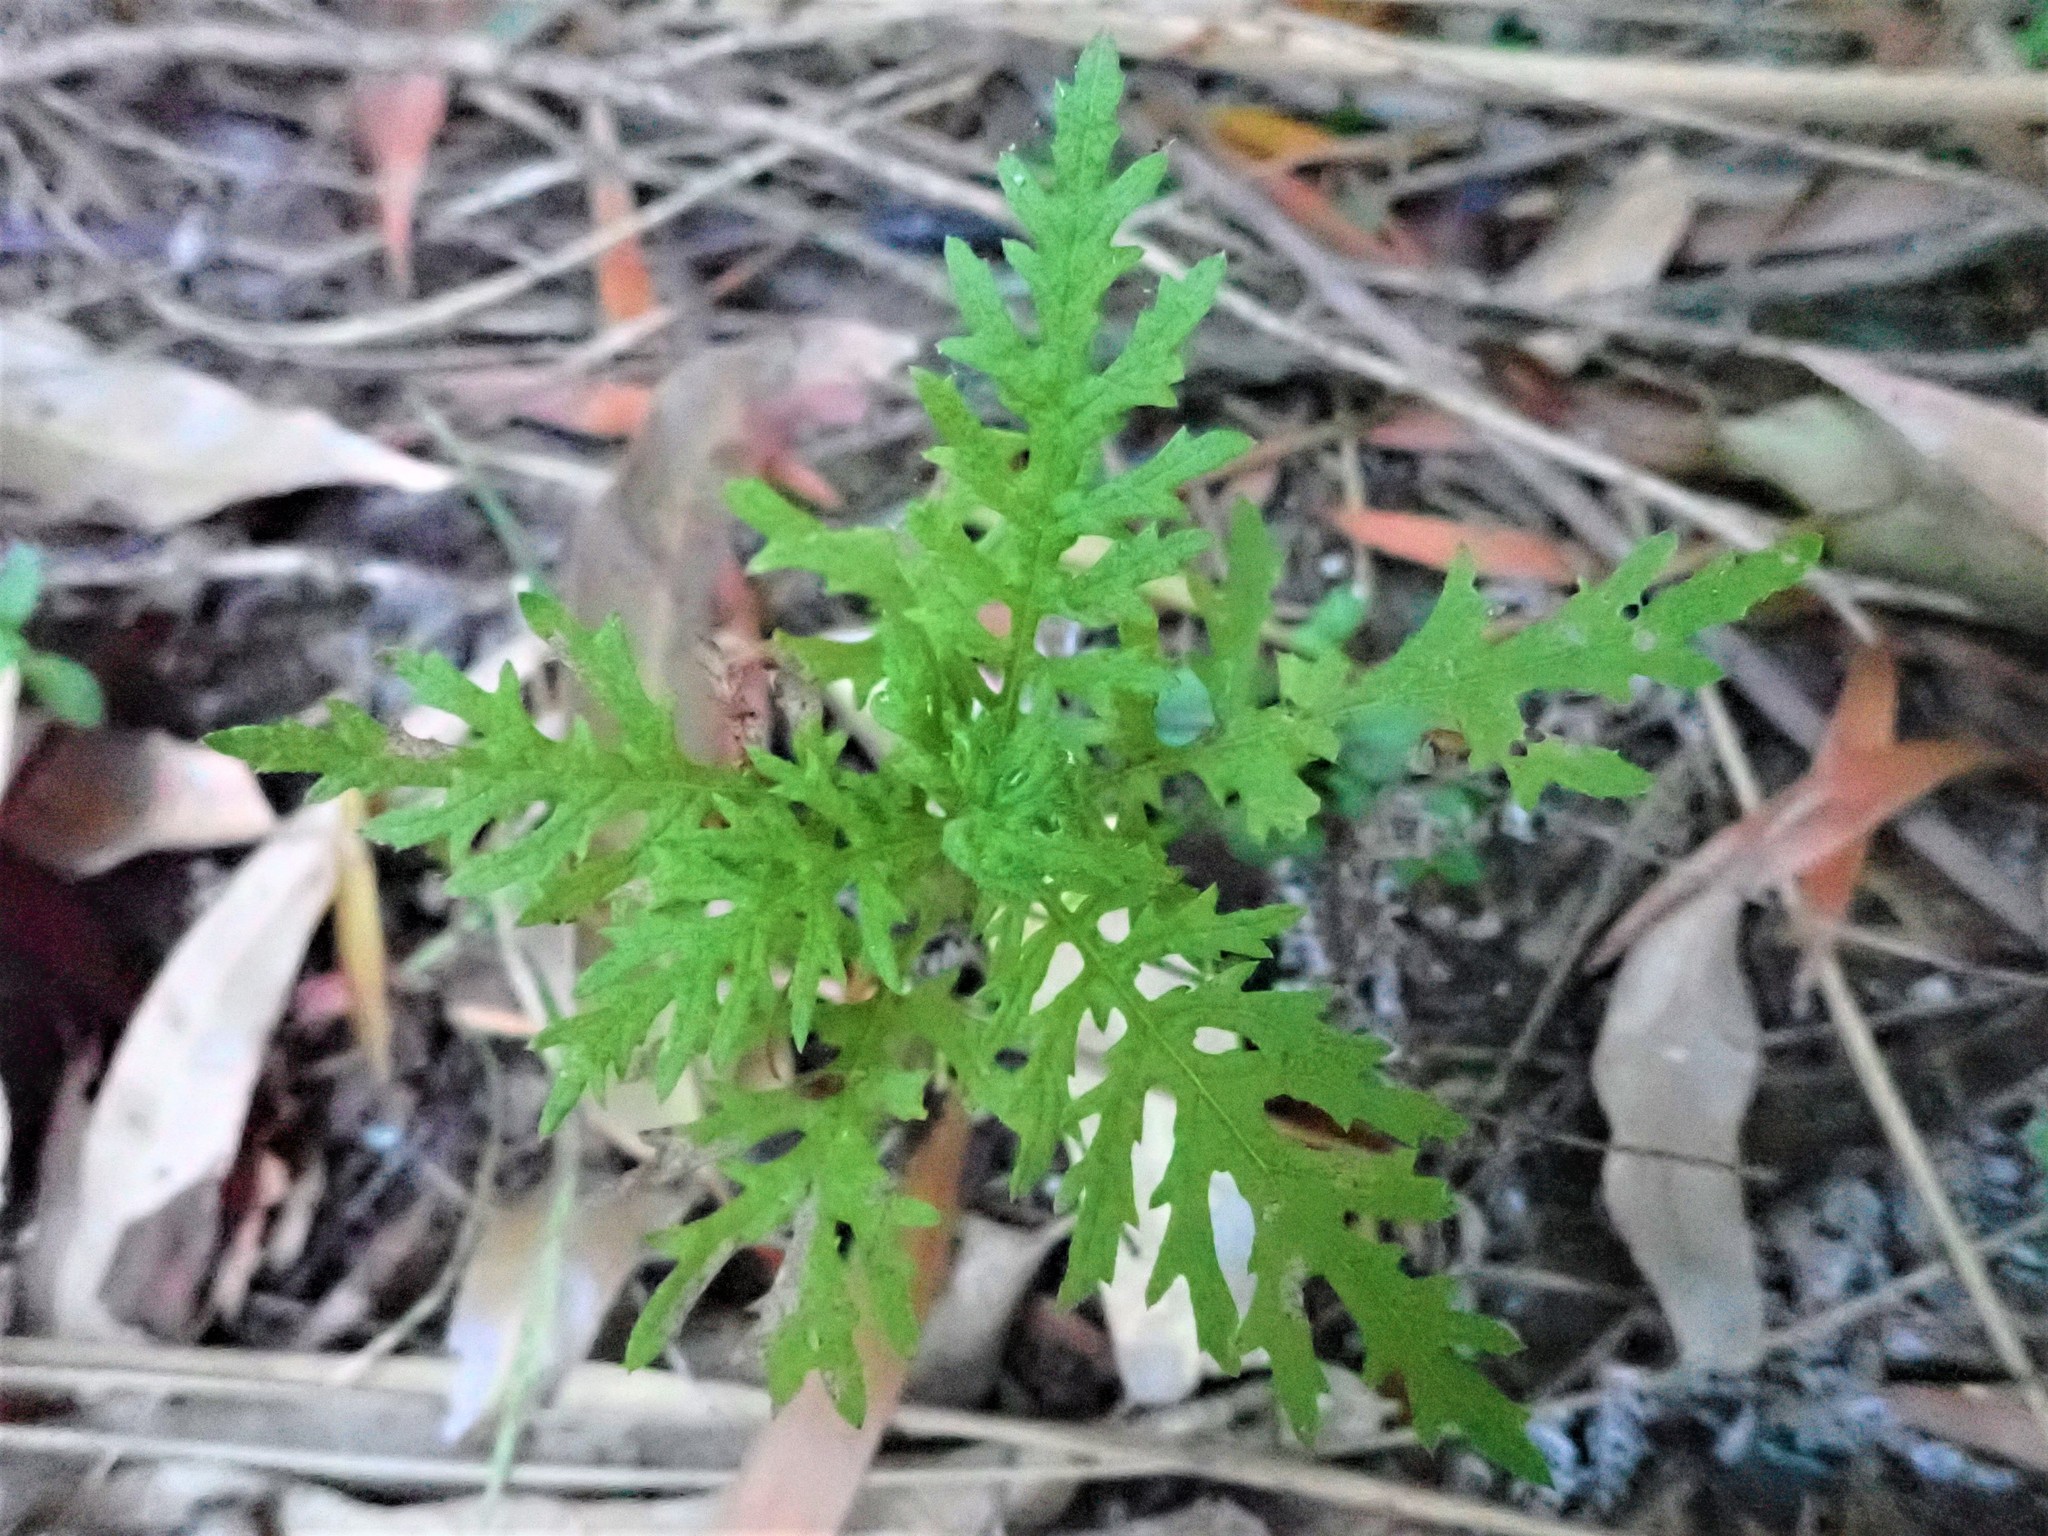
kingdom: Plantae
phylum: Tracheophyta
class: Magnoliopsida
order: Asterales
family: Asteraceae
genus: Senecio
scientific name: Senecio bipinnatisectus
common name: Australian fireweed
